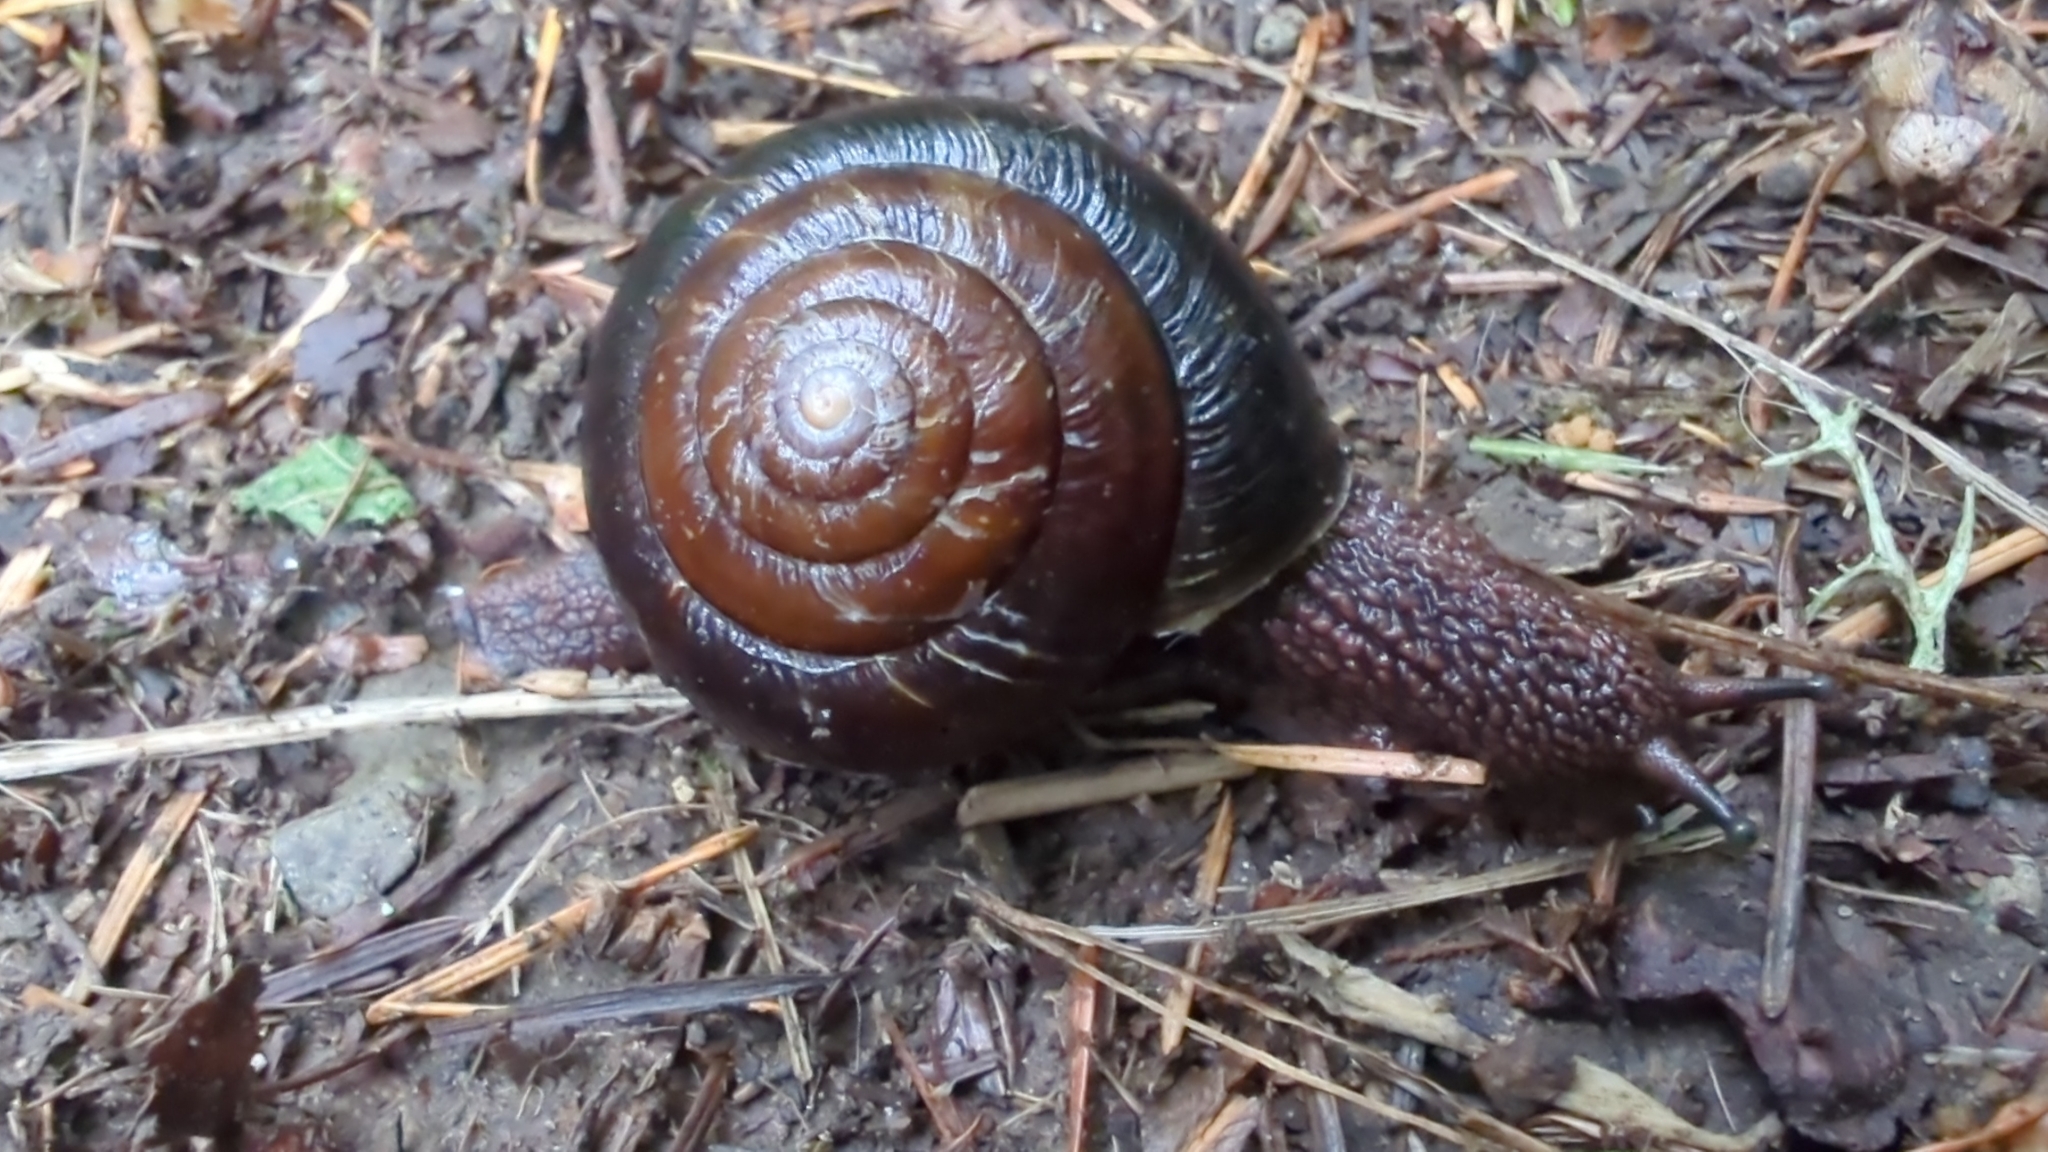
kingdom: Animalia
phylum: Mollusca
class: Gastropoda
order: Stylommatophora
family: Xanthonychidae
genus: Monadenia
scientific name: Monadenia fidelis
